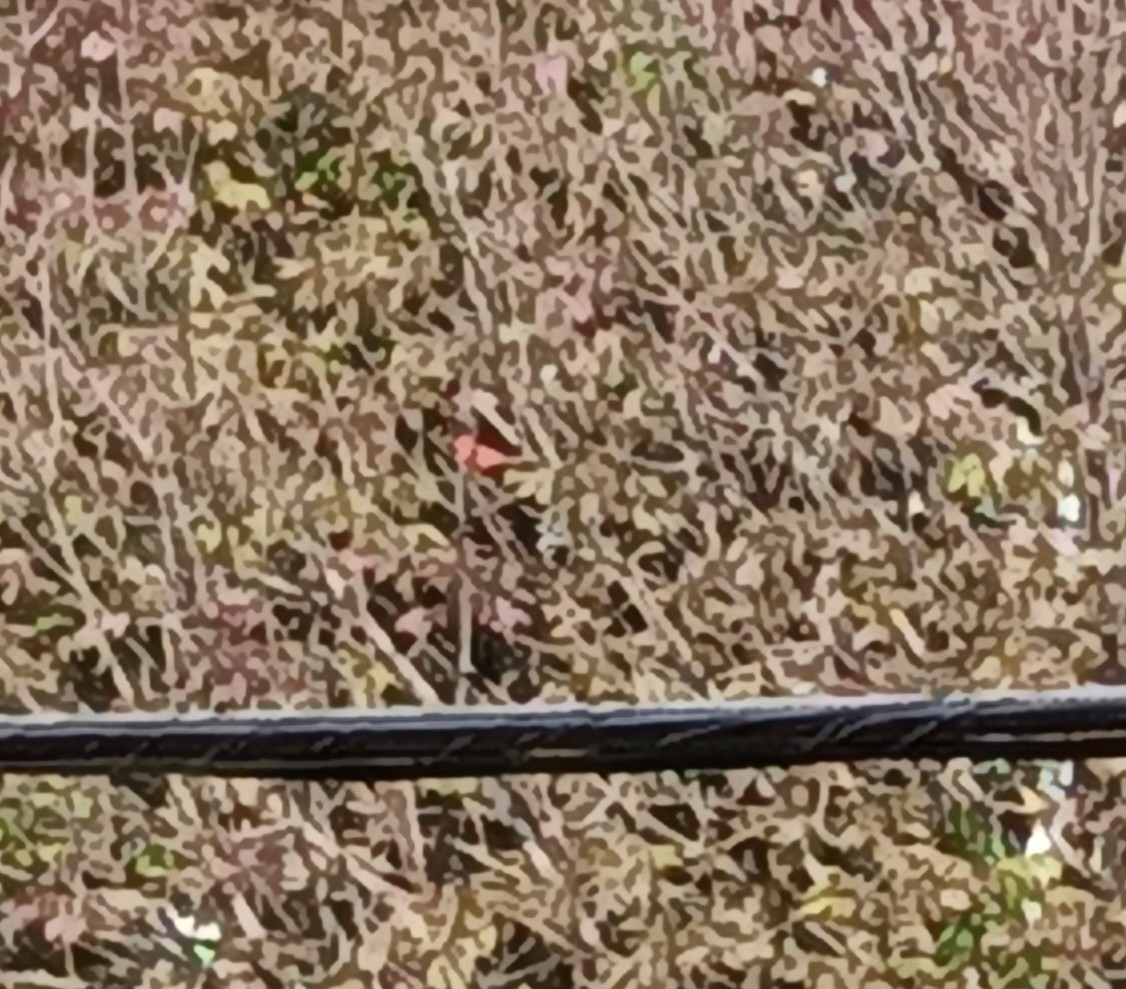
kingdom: Animalia
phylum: Chordata
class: Aves
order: Passeriformes
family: Cardinalidae
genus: Cardinalis
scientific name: Cardinalis cardinalis
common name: Northern cardinal
